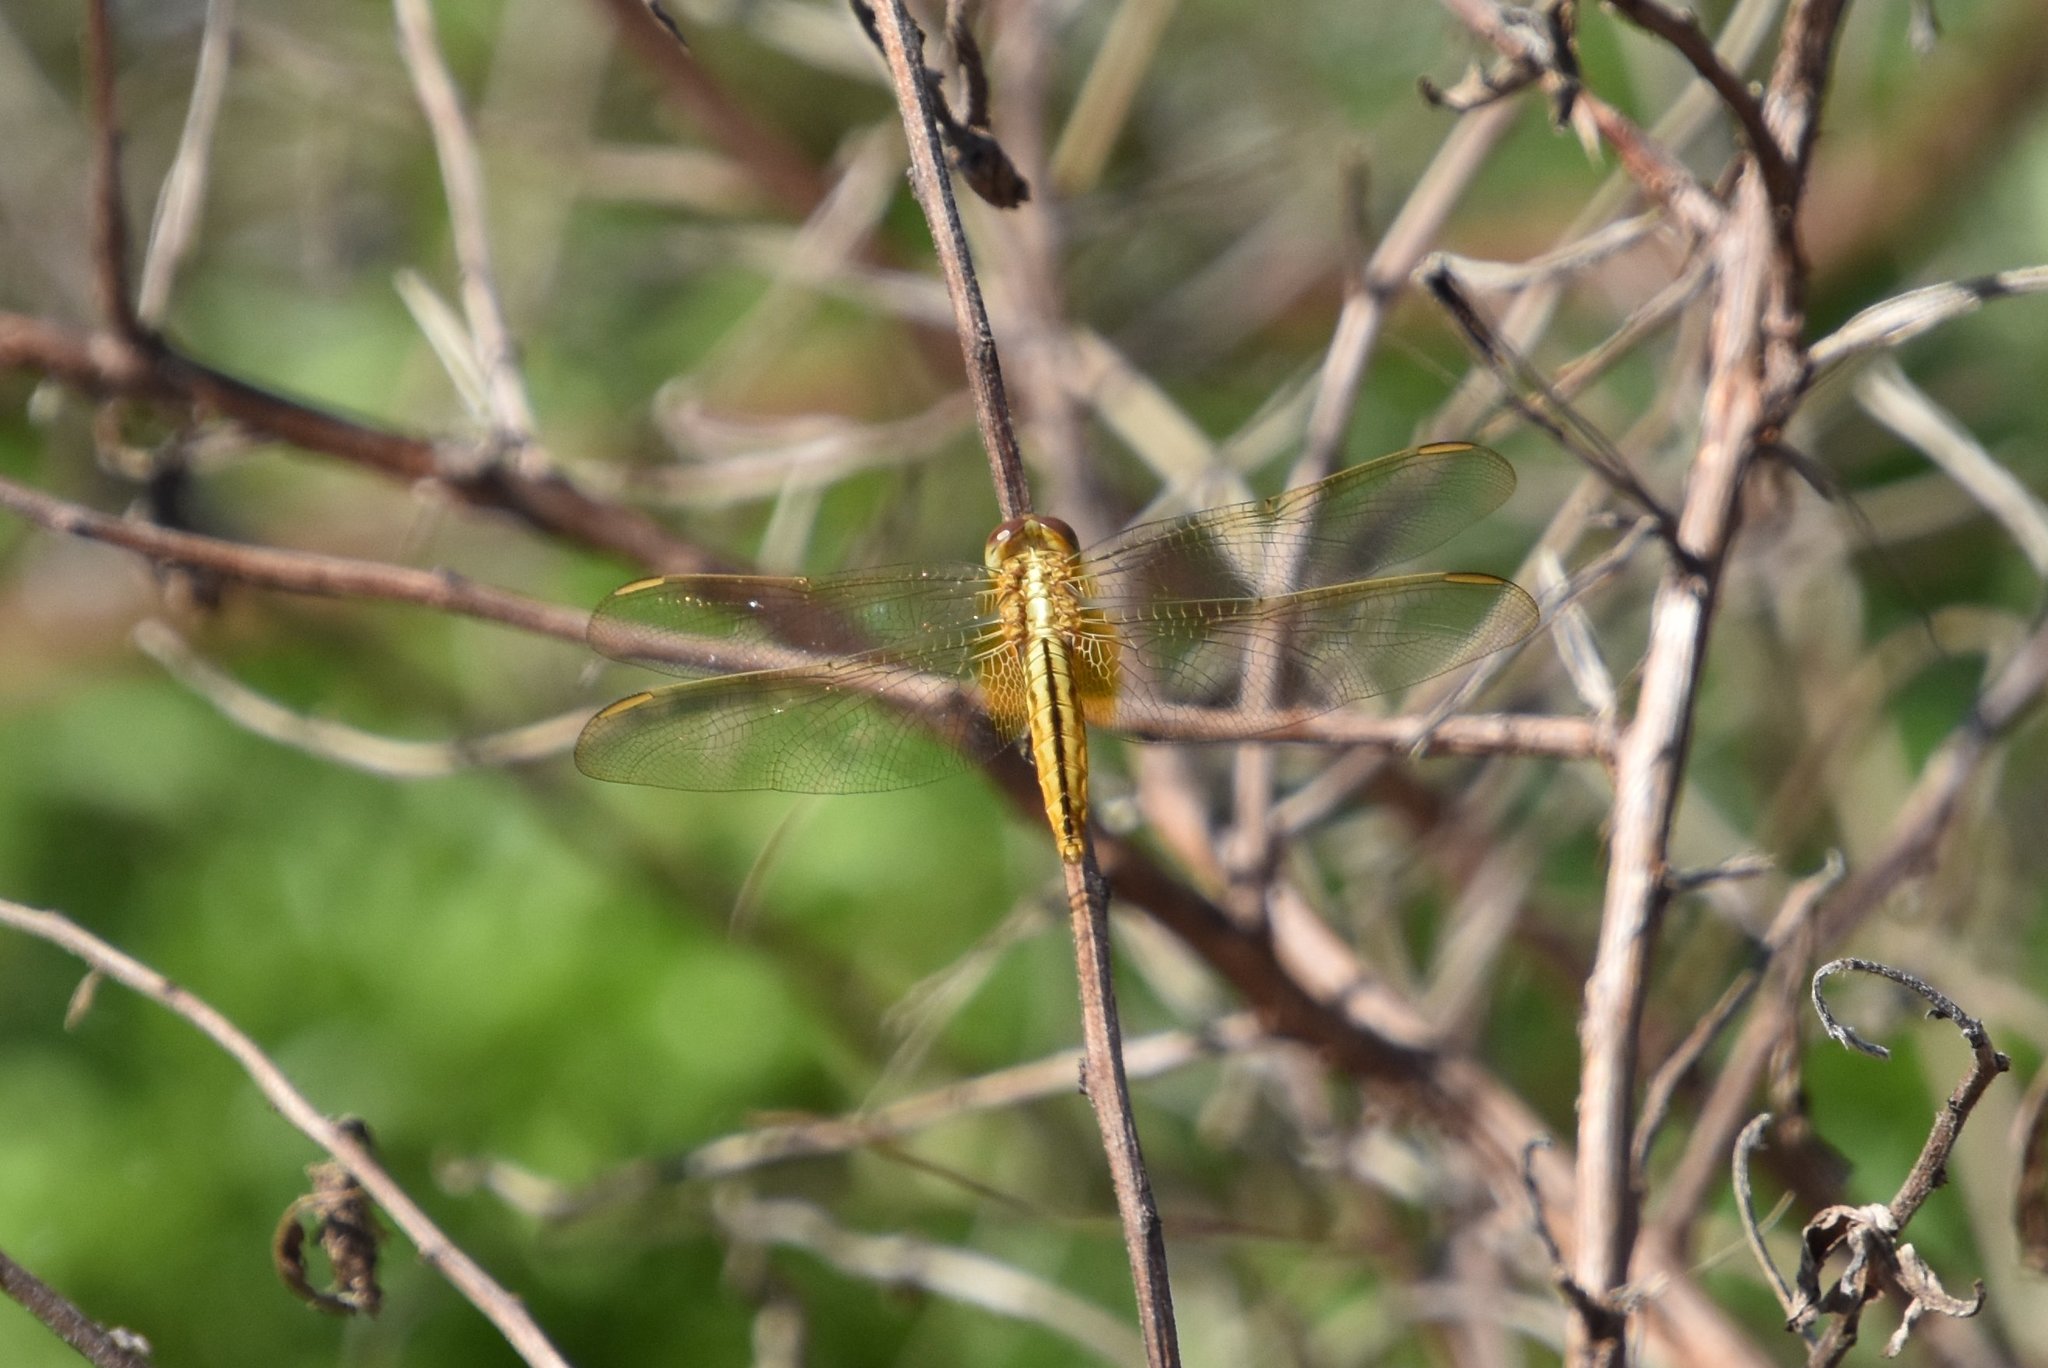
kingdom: Animalia
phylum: Arthropoda
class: Insecta
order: Odonata
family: Libellulidae
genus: Crocothemis
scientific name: Crocothemis servilia
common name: Scarlet skimmer
